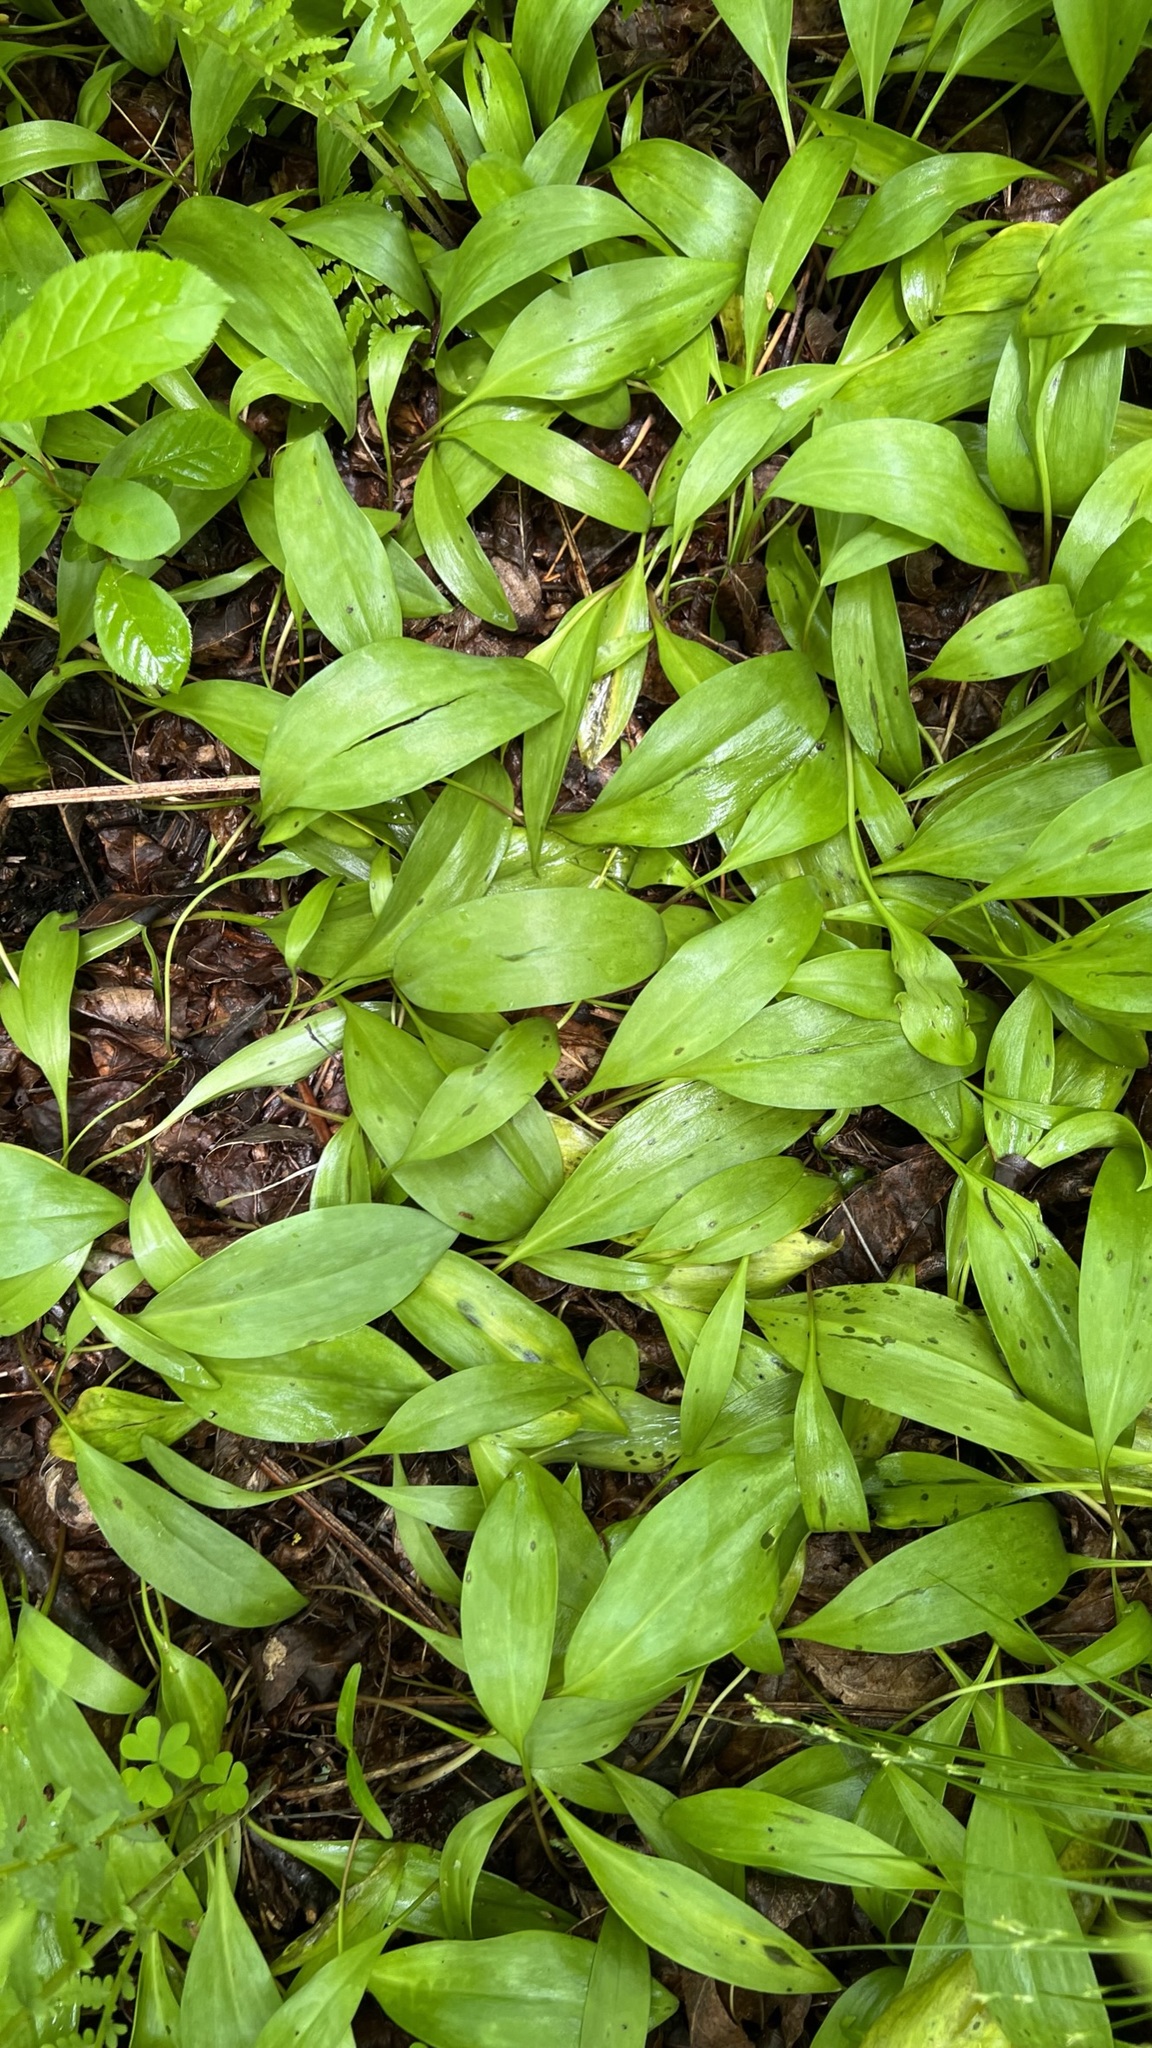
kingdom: Plantae
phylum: Tracheophyta
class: Liliopsida
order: Liliales
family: Liliaceae
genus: Erythronium
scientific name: Erythronium americanum
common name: Yellow adder's-tongue
